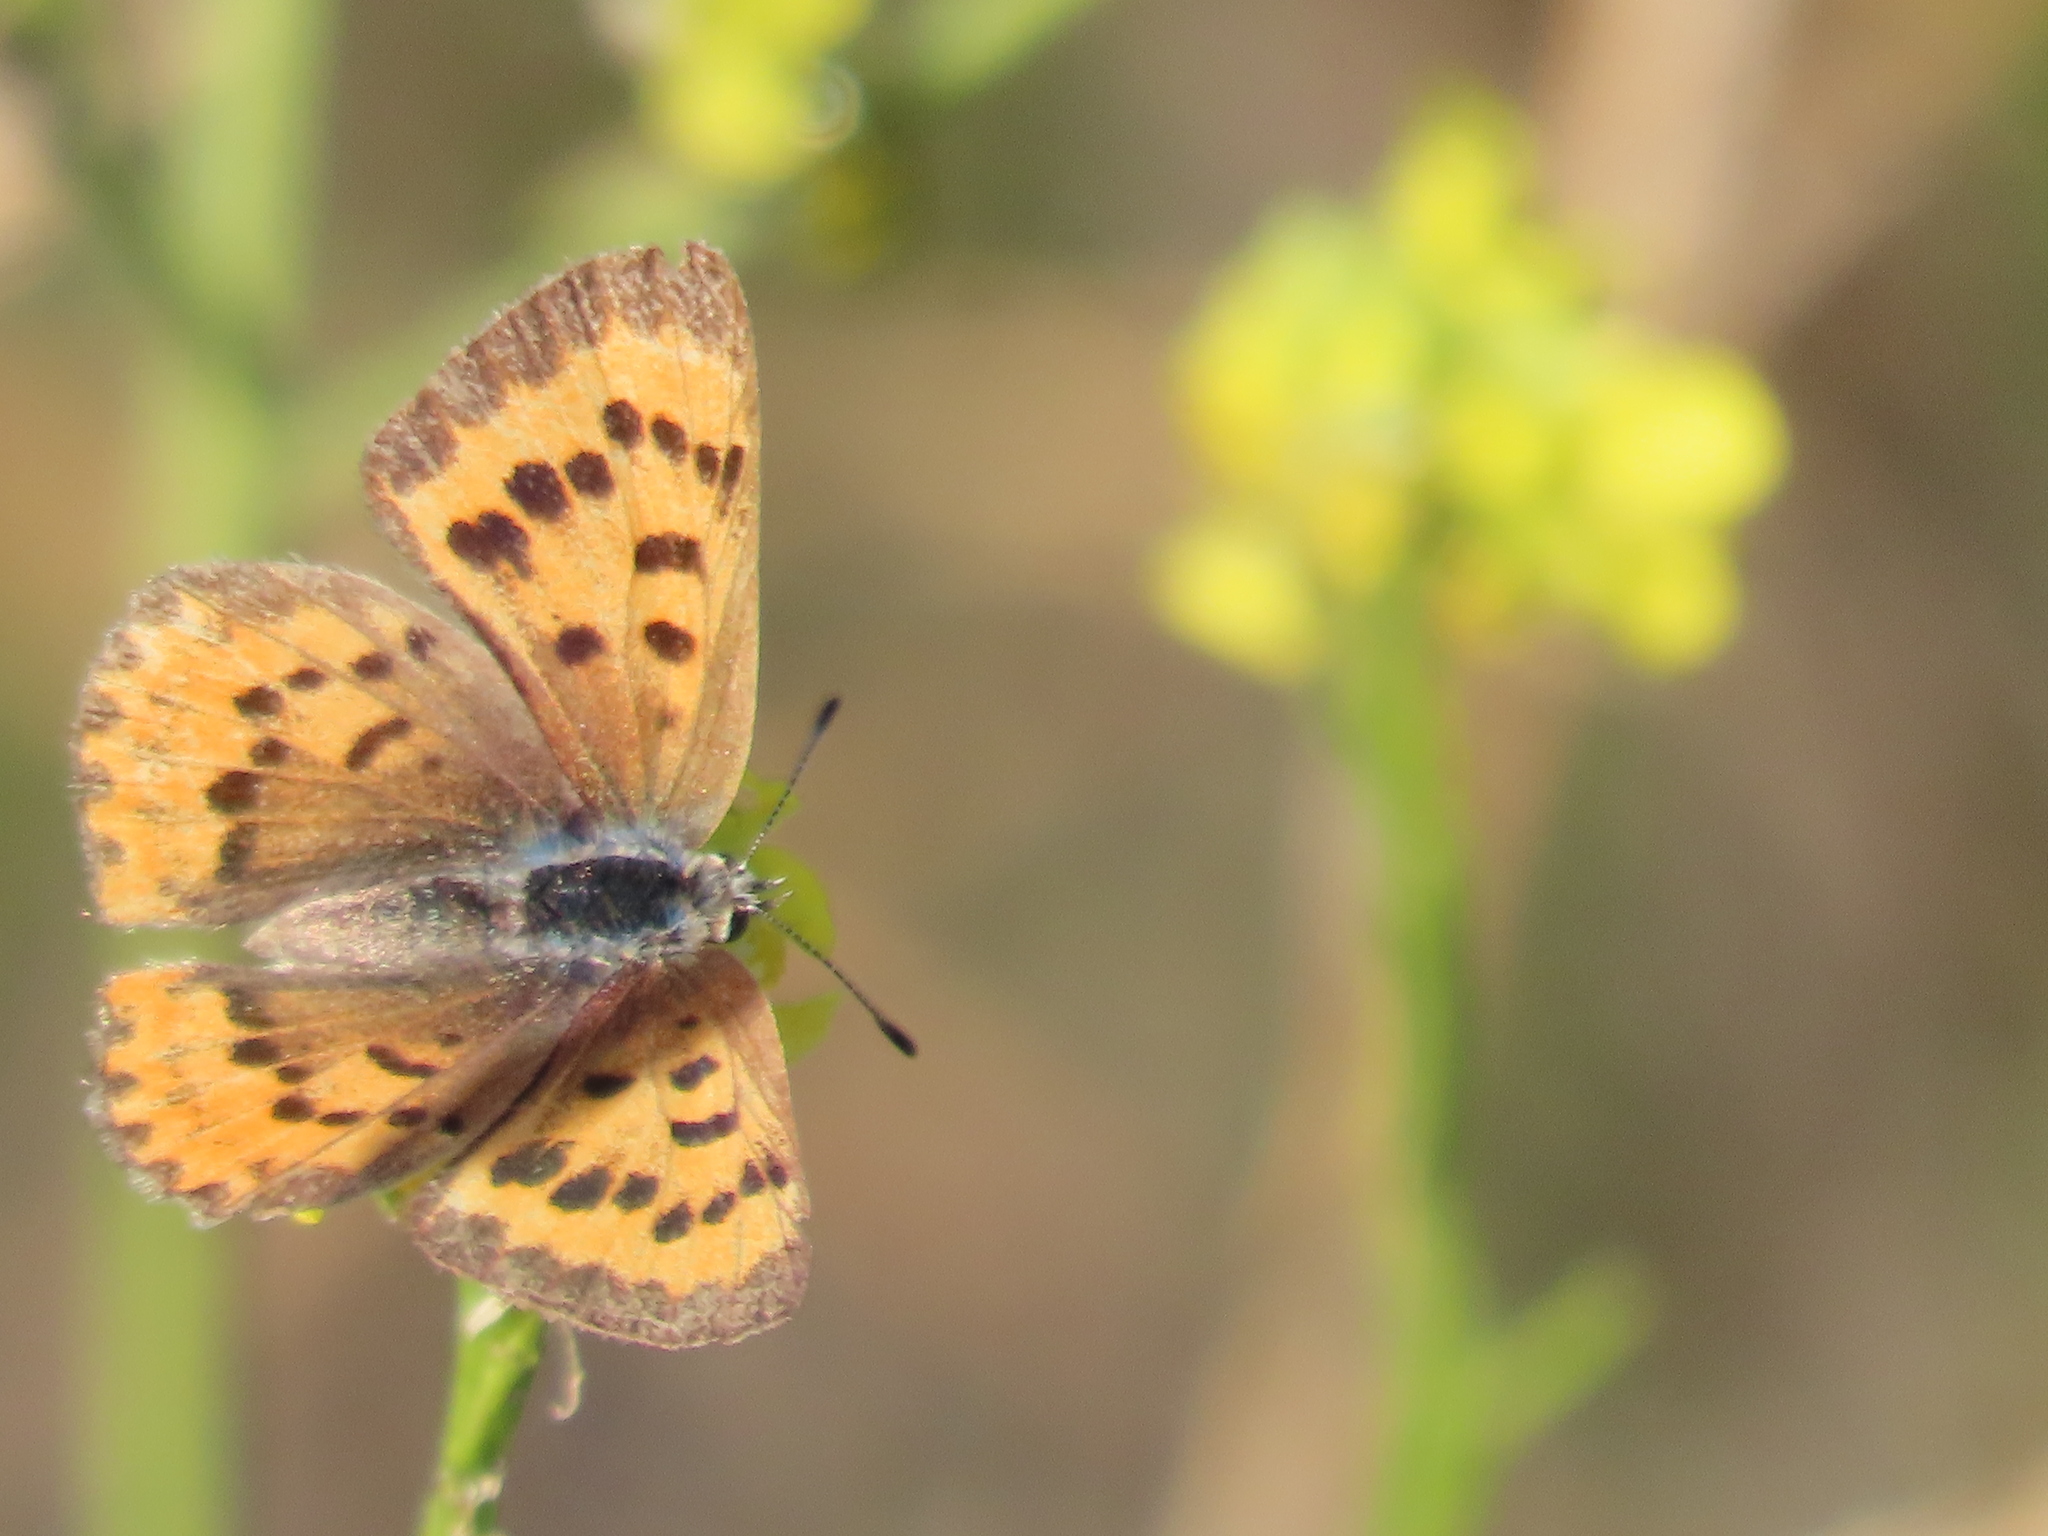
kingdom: Animalia
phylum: Arthropoda
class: Insecta
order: Lepidoptera
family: Lycaenidae
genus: Tharsalea
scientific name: Tharsalea helloides
